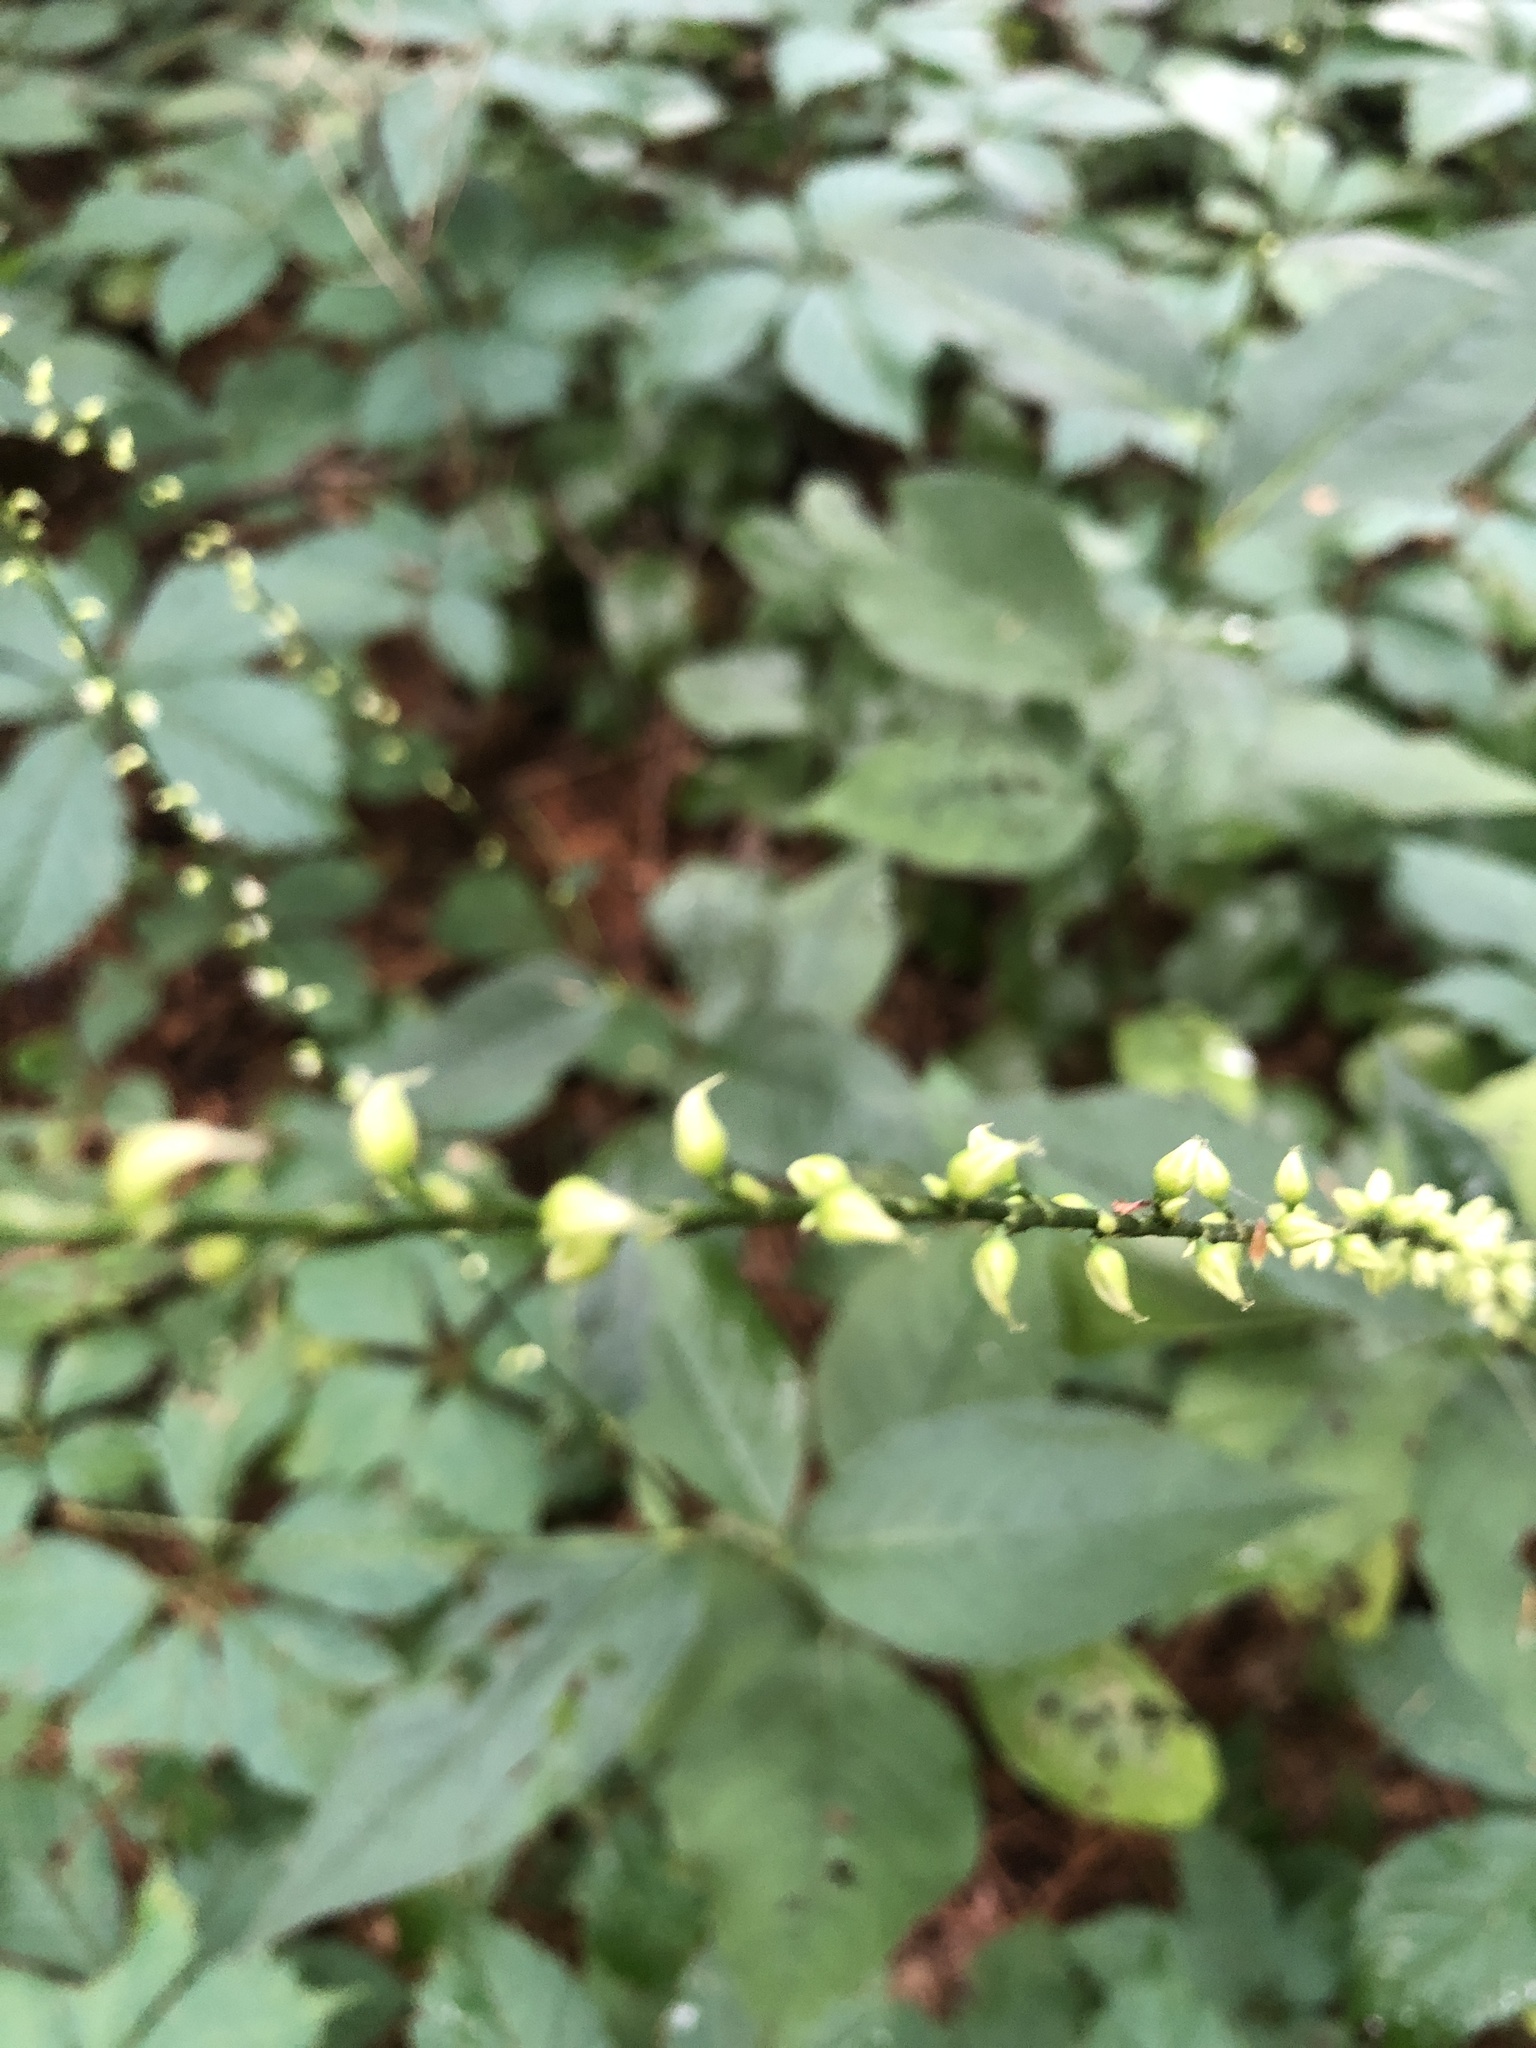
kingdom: Plantae
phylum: Tracheophyta
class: Magnoliopsida
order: Caryophyllales
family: Polygonaceae
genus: Persicaria
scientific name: Persicaria virginiana
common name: Jumpseed
